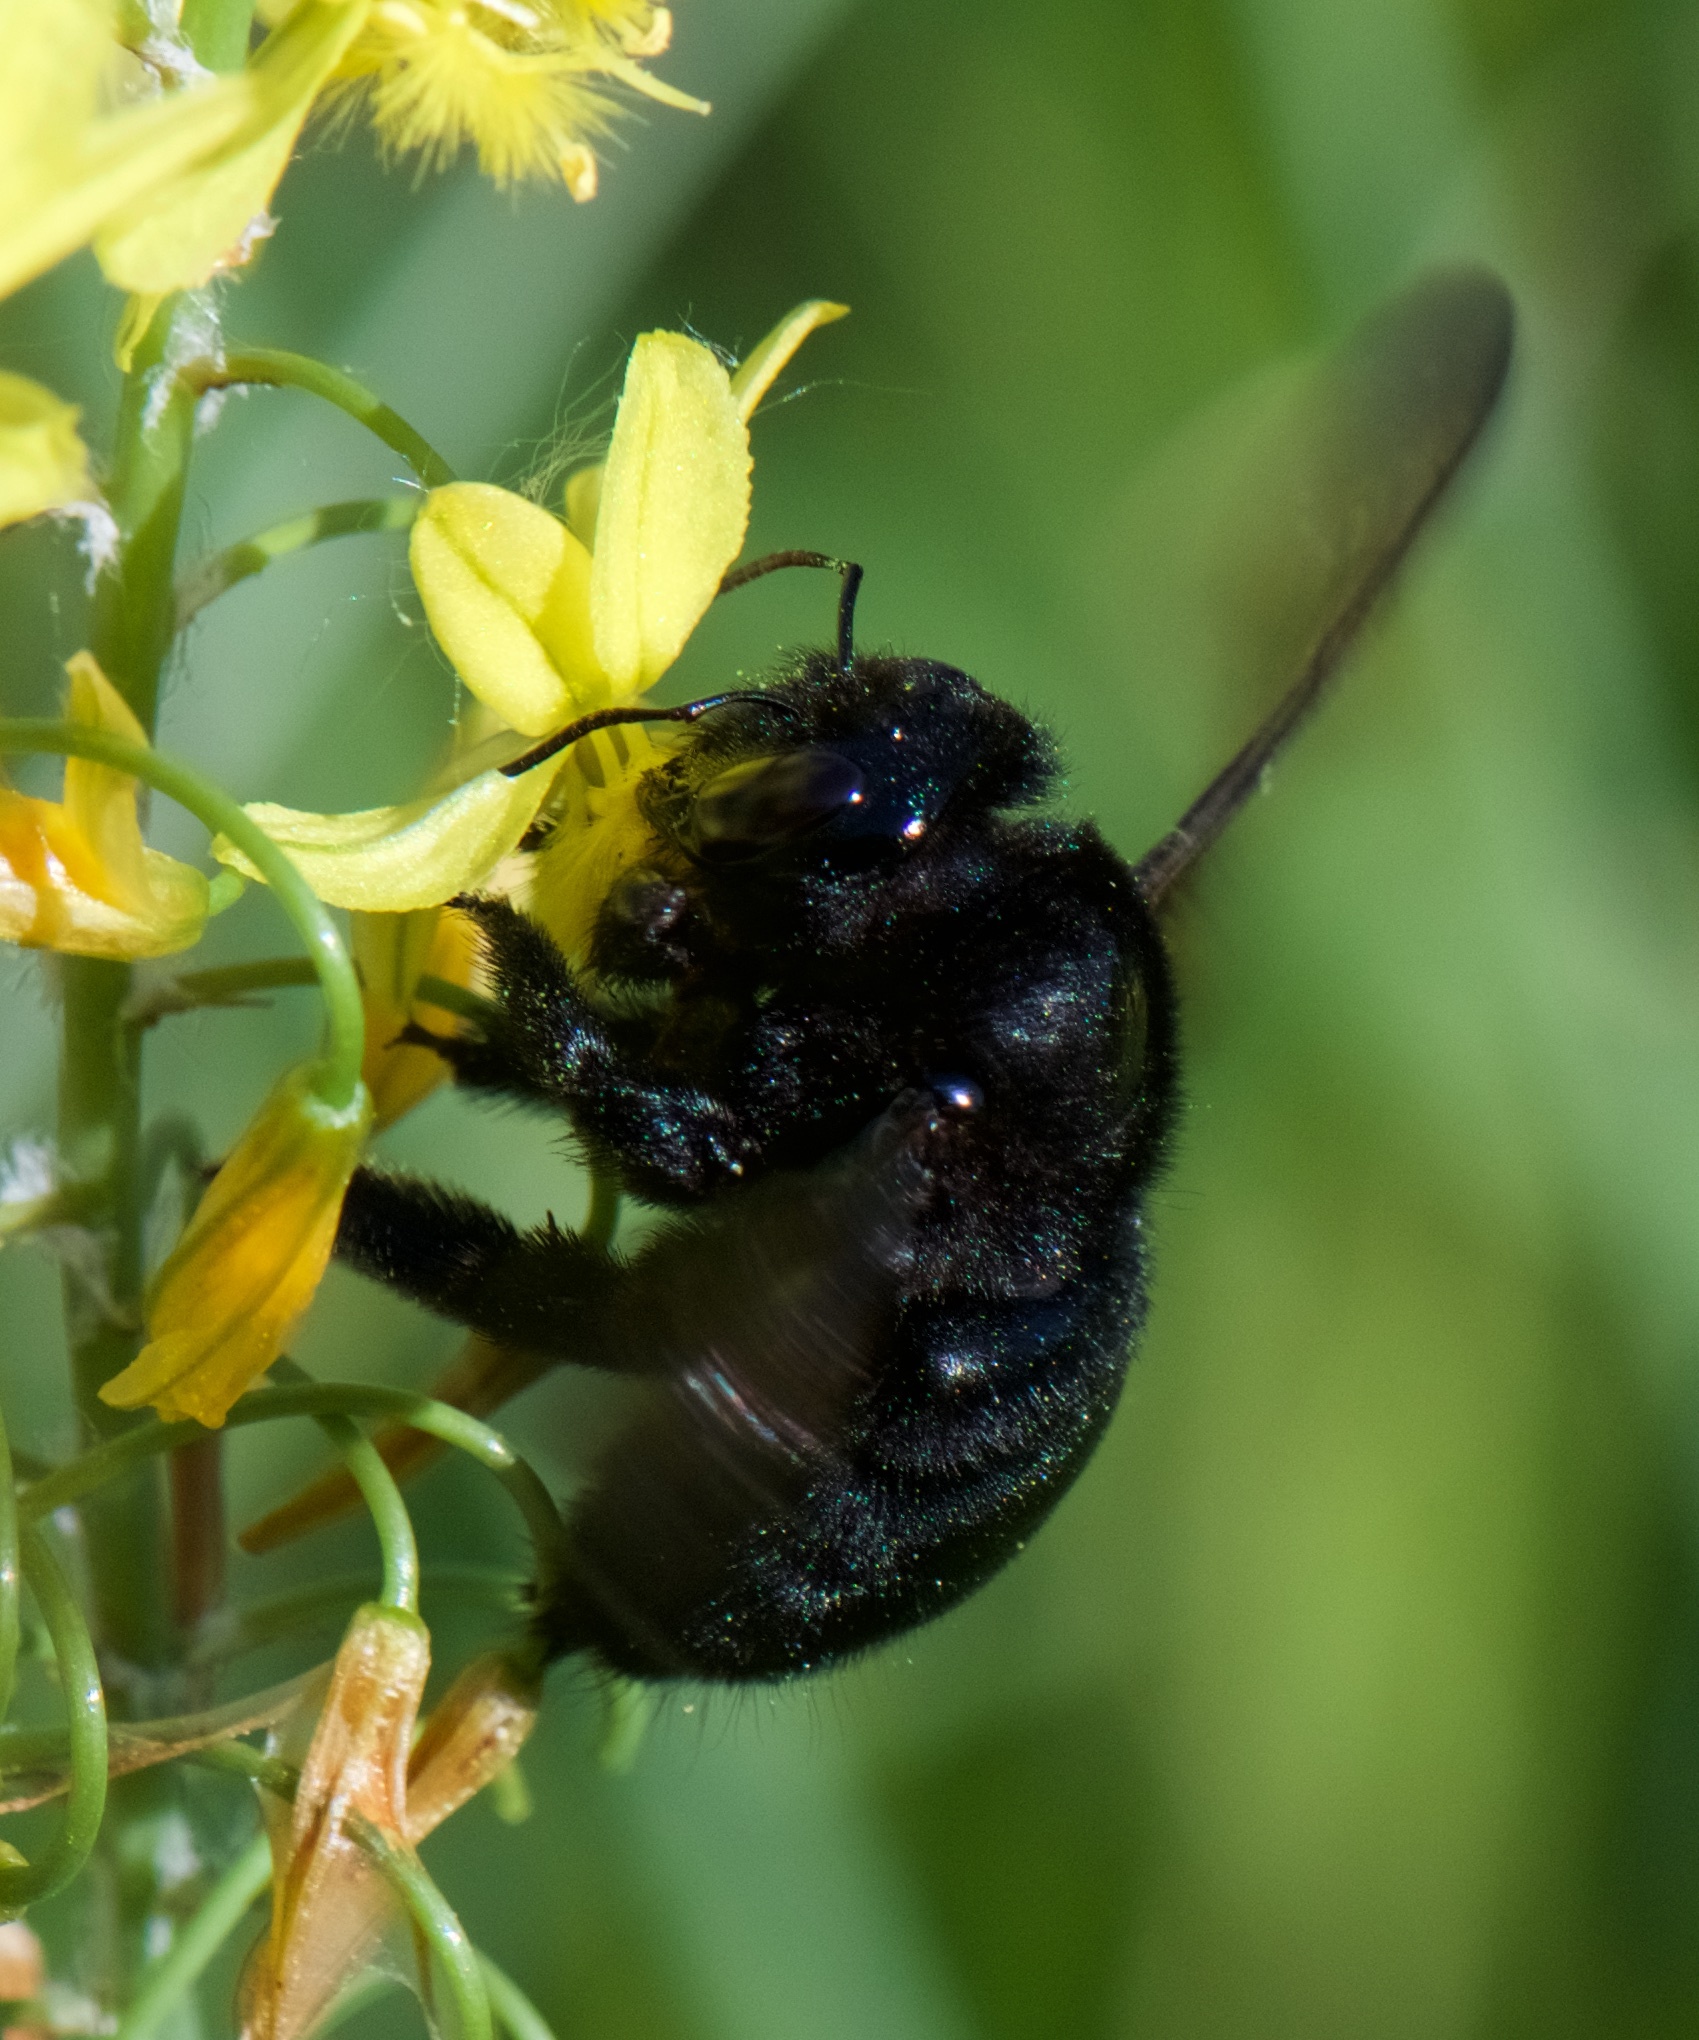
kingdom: Animalia
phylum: Arthropoda
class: Insecta
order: Hymenoptera
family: Apidae
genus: Xylocopa
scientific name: Xylocopa sonorina
